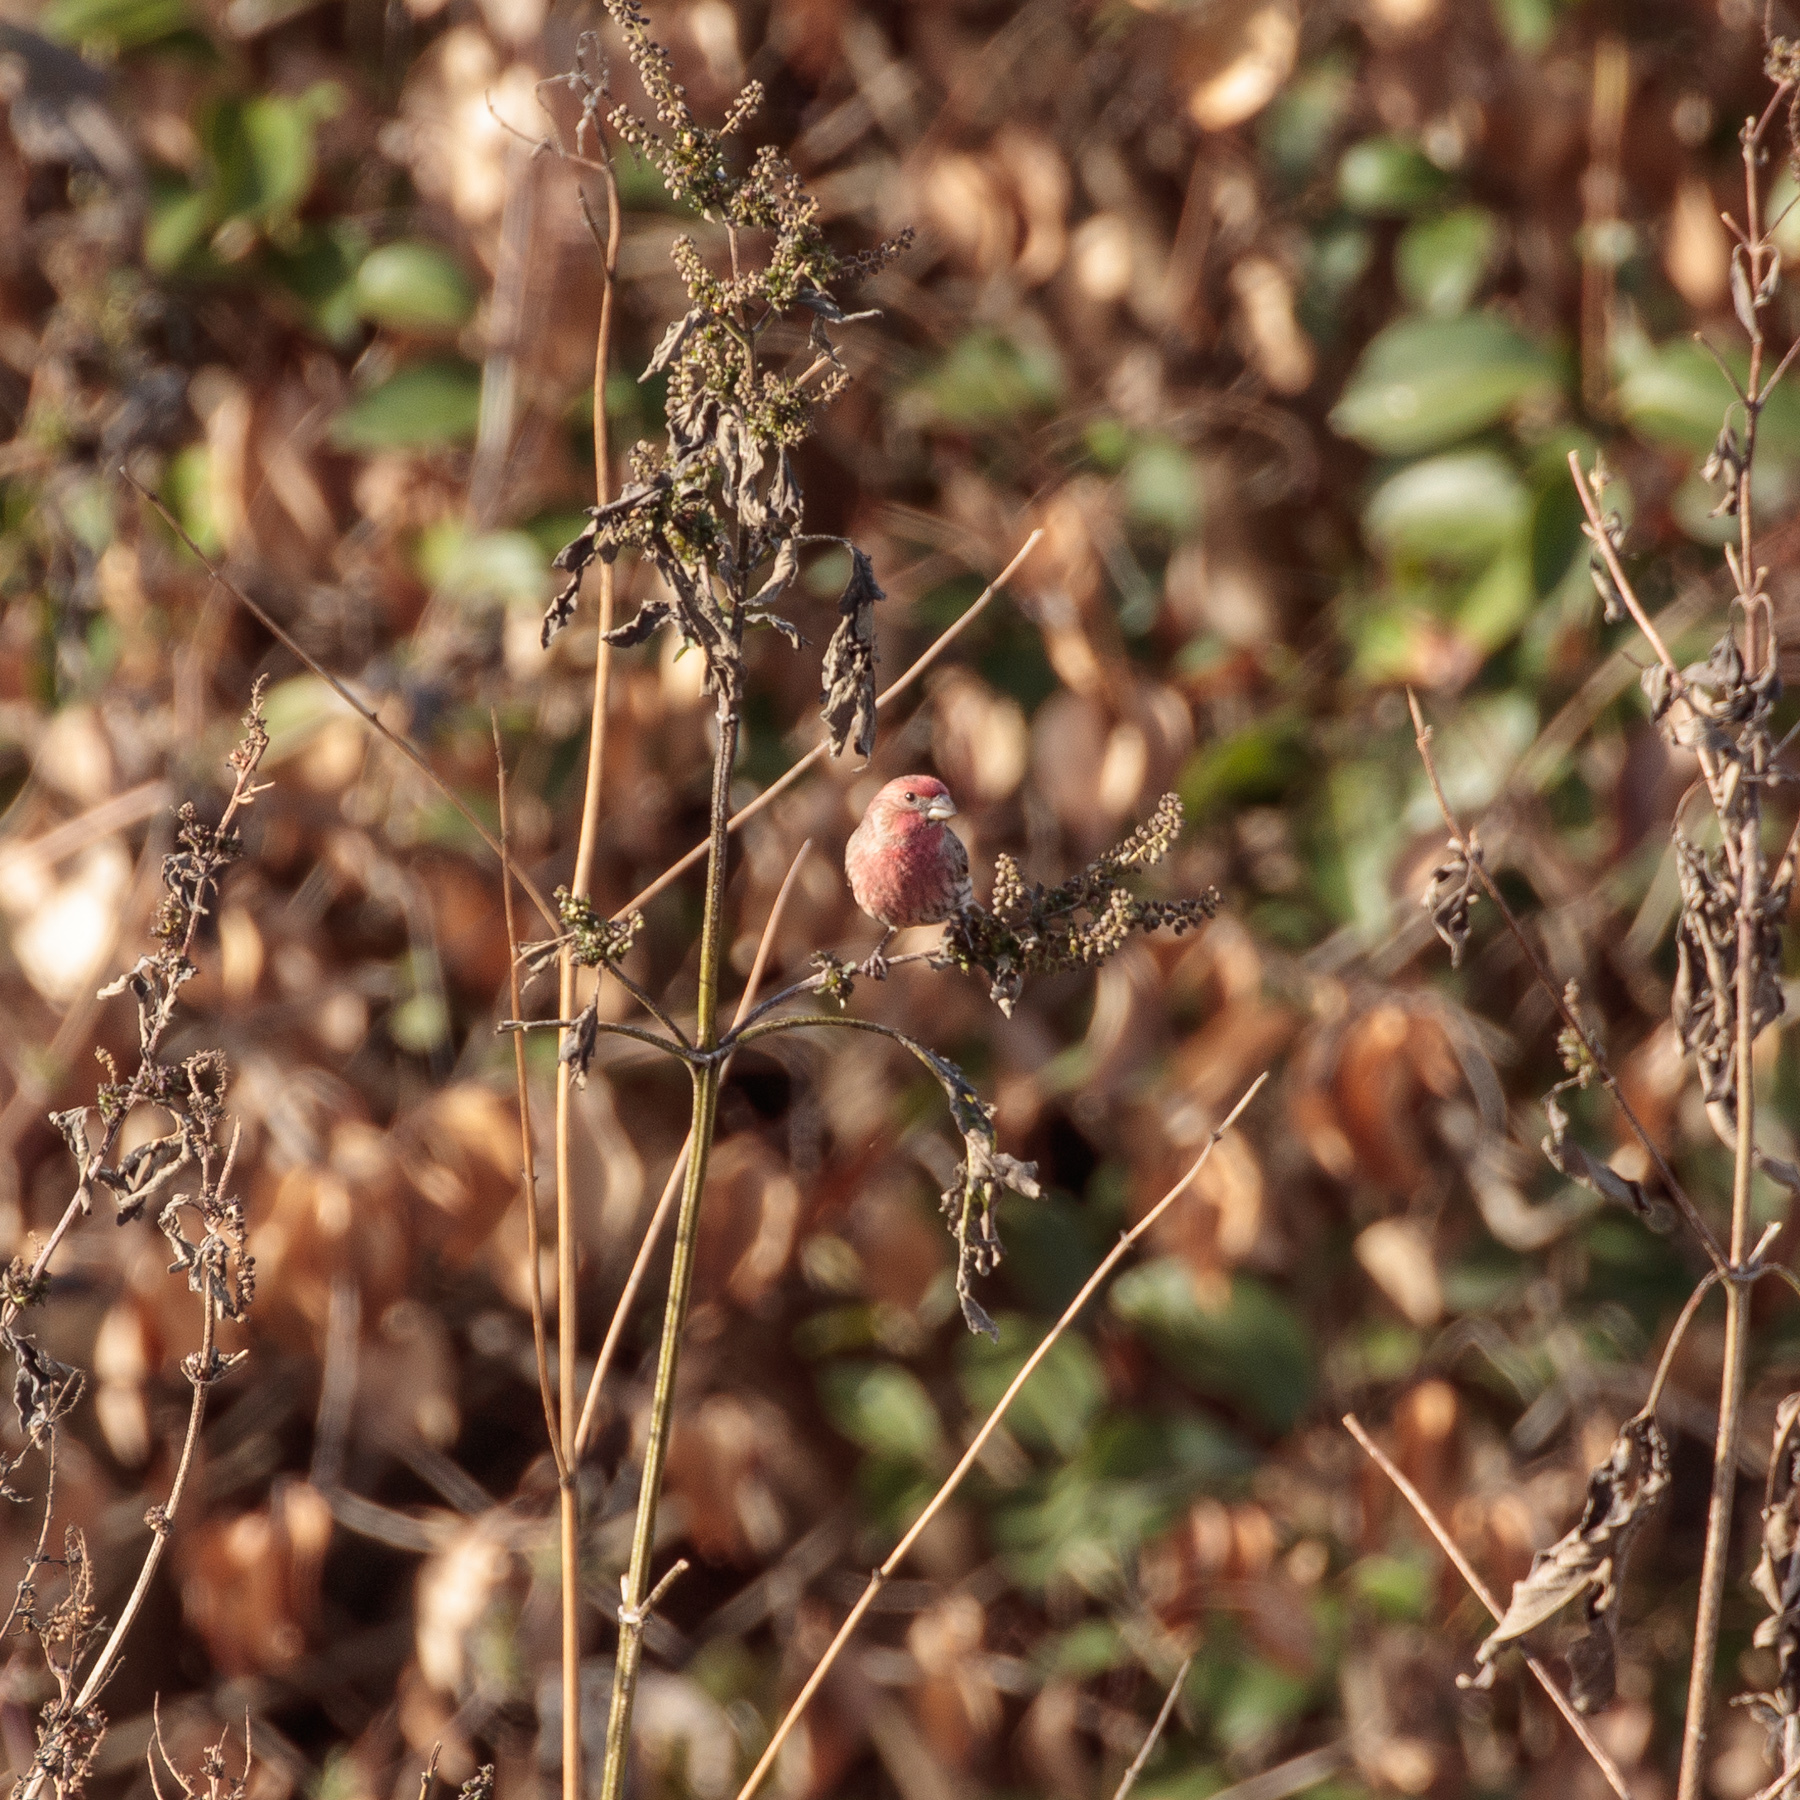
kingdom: Animalia
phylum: Chordata
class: Aves
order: Passeriformes
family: Fringillidae
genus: Haemorhous
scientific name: Haemorhous mexicanus
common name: House finch
